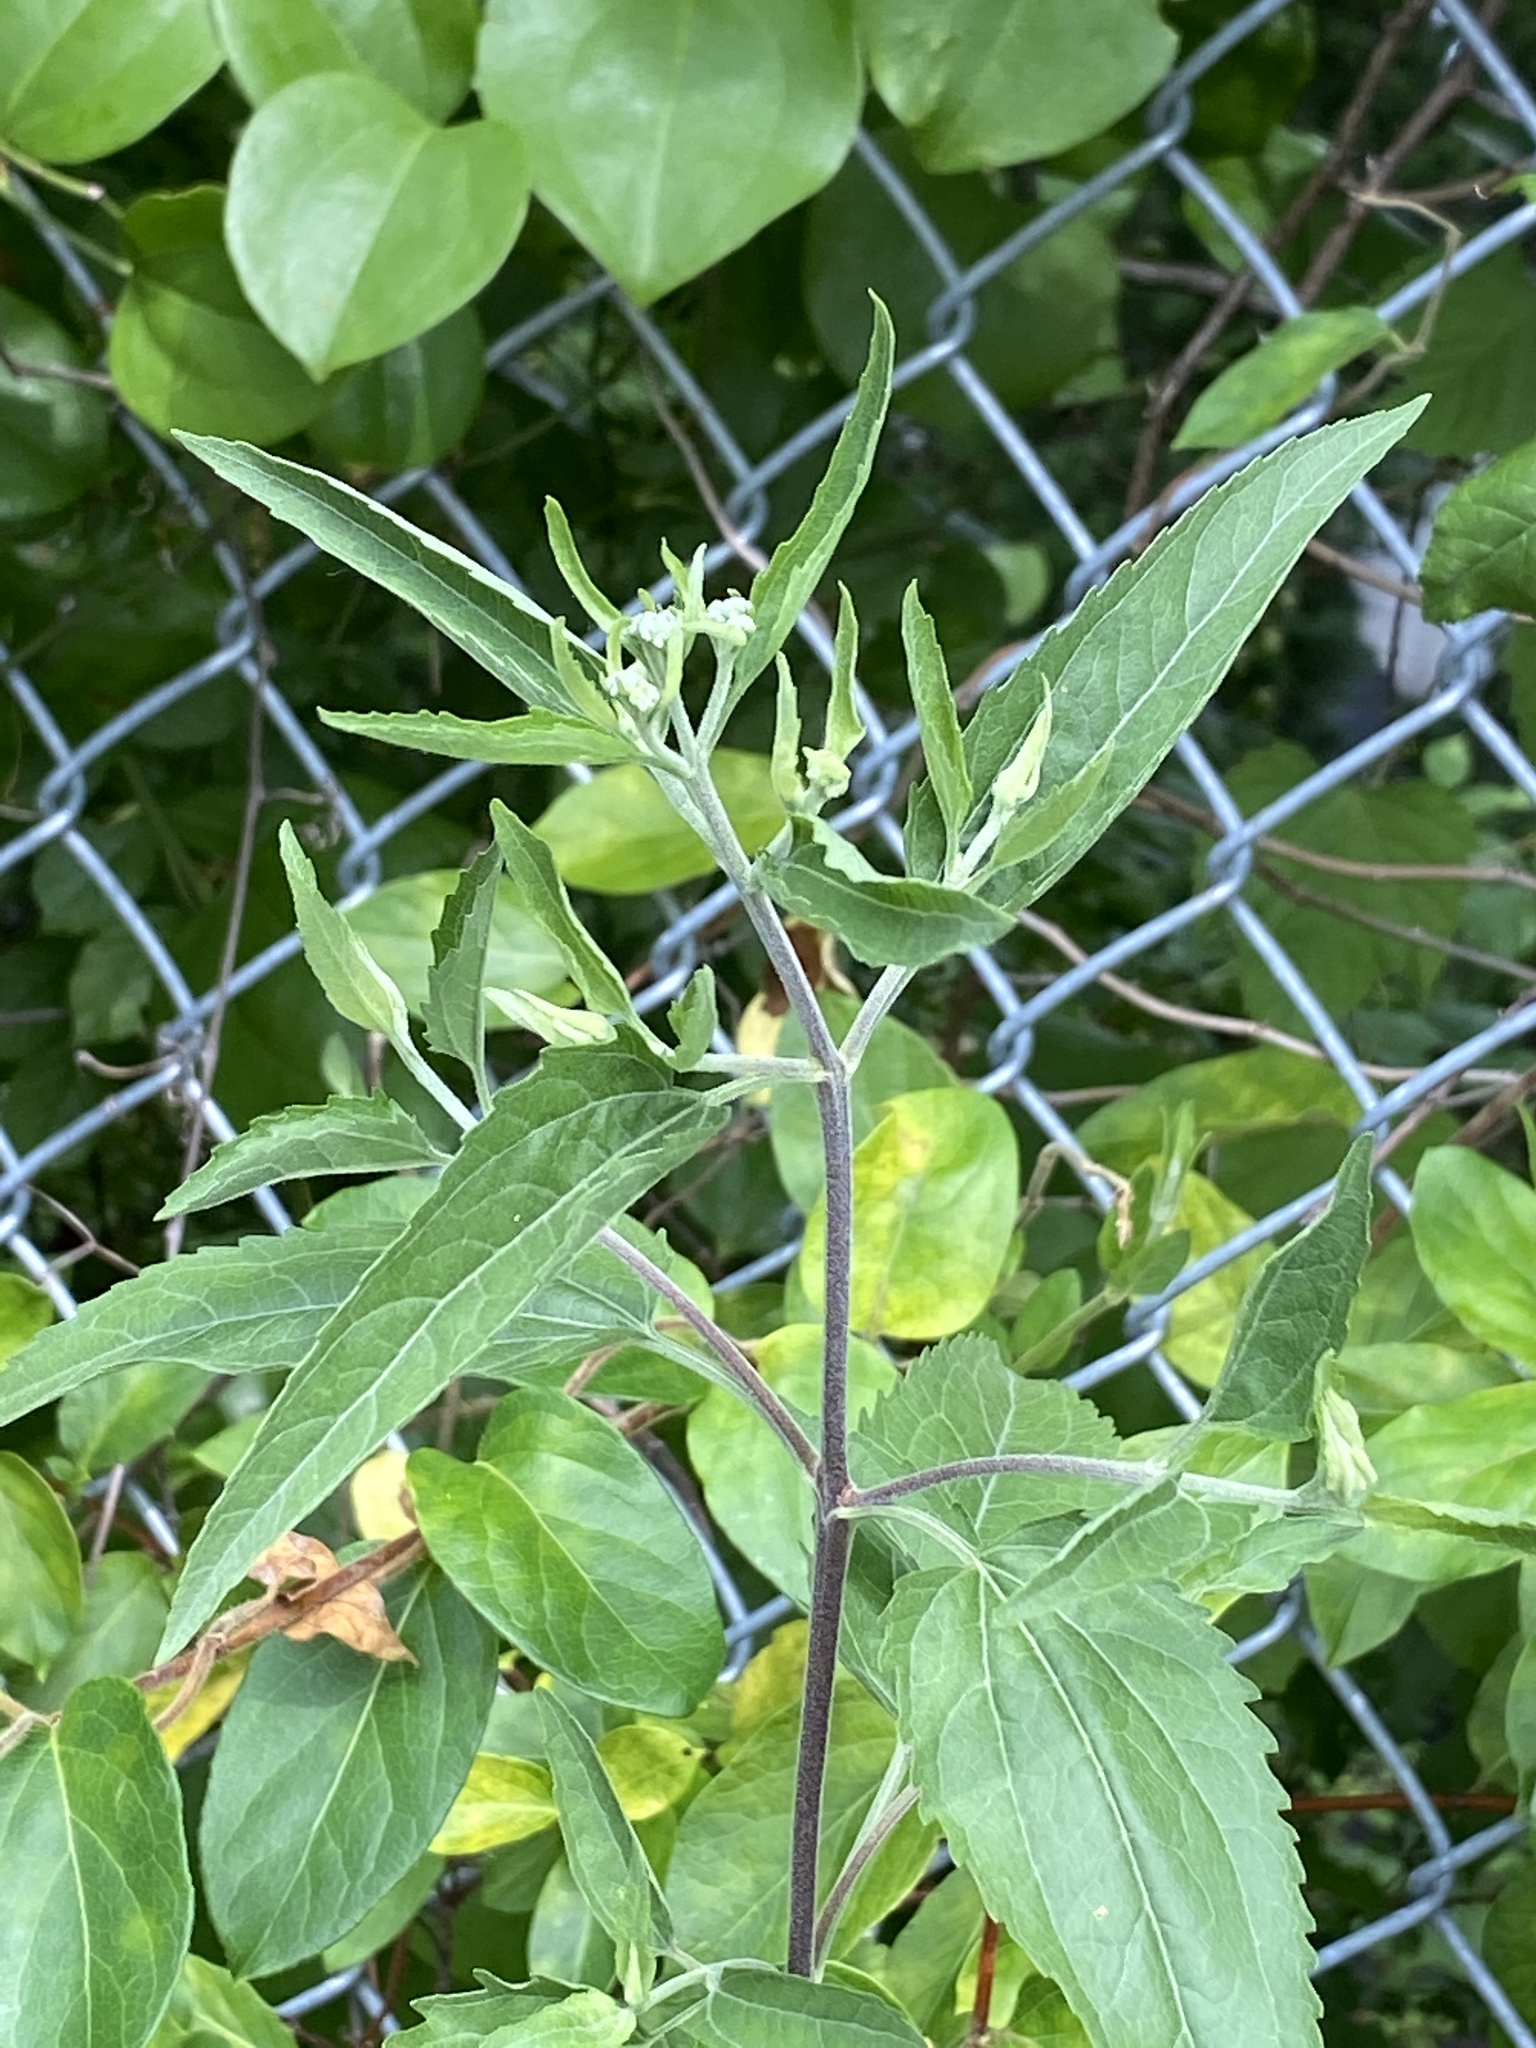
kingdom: Plantae
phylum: Tracheophyta
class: Magnoliopsida
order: Asterales
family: Asteraceae
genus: Eupatorium
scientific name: Eupatorium serotinum
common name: Late boneset
